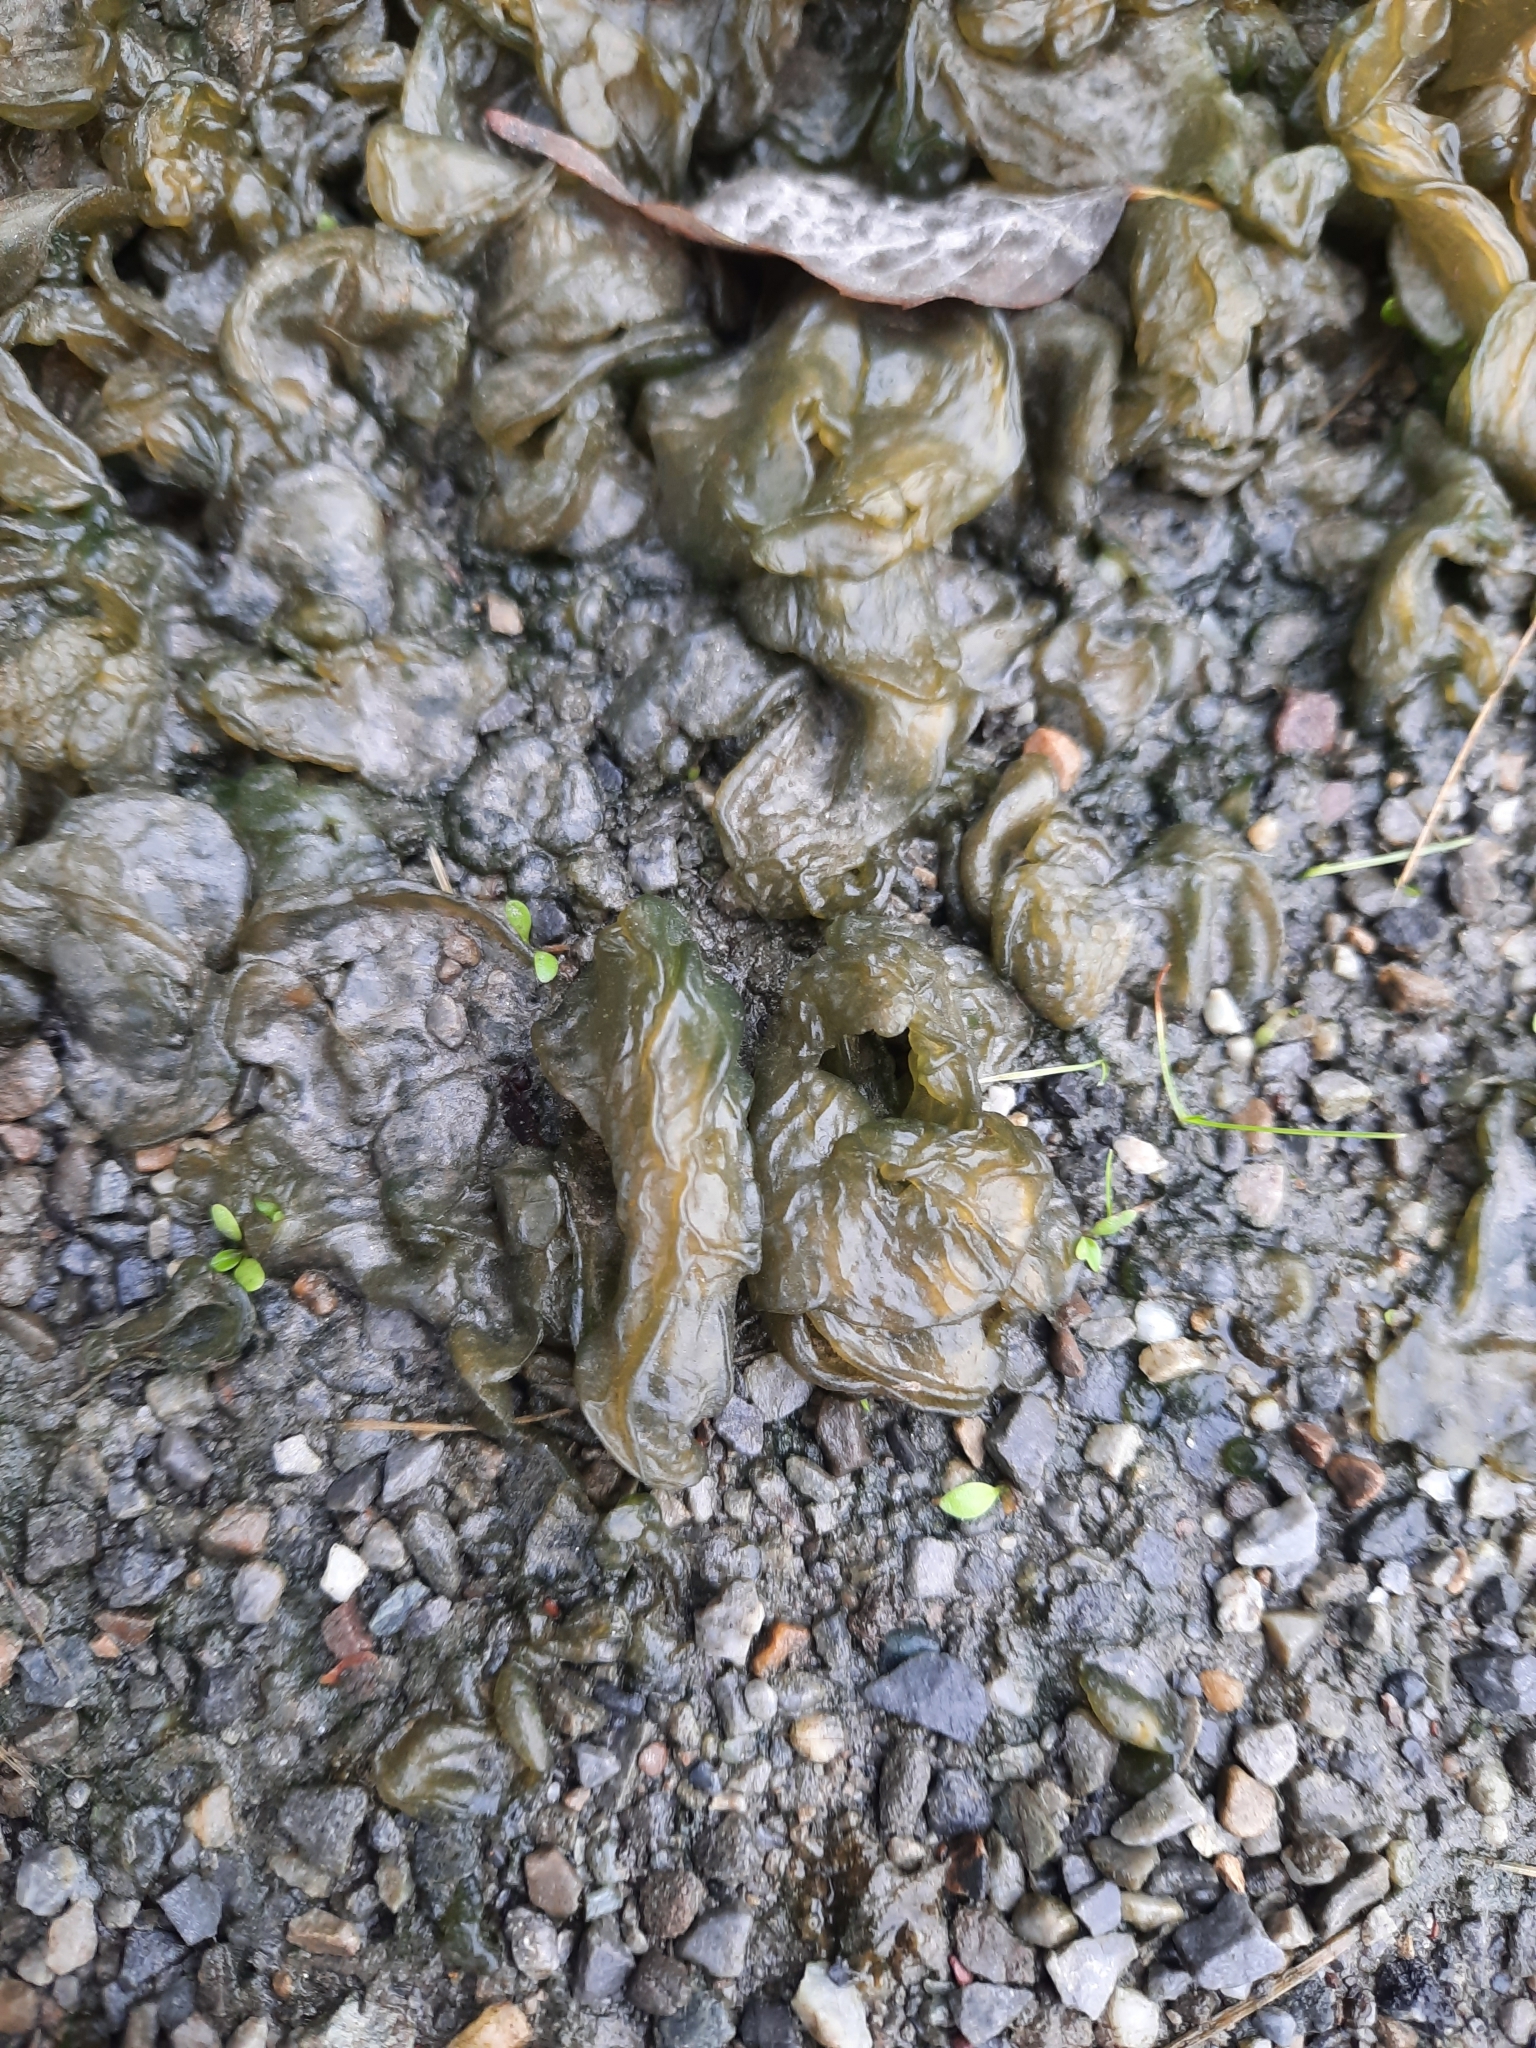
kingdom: Bacteria
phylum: Cyanobacteria
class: Cyanobacteriia
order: Cyanobacteriales
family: Nostocaceae
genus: Nostoc
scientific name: Nostoc commune
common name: Star jelly
